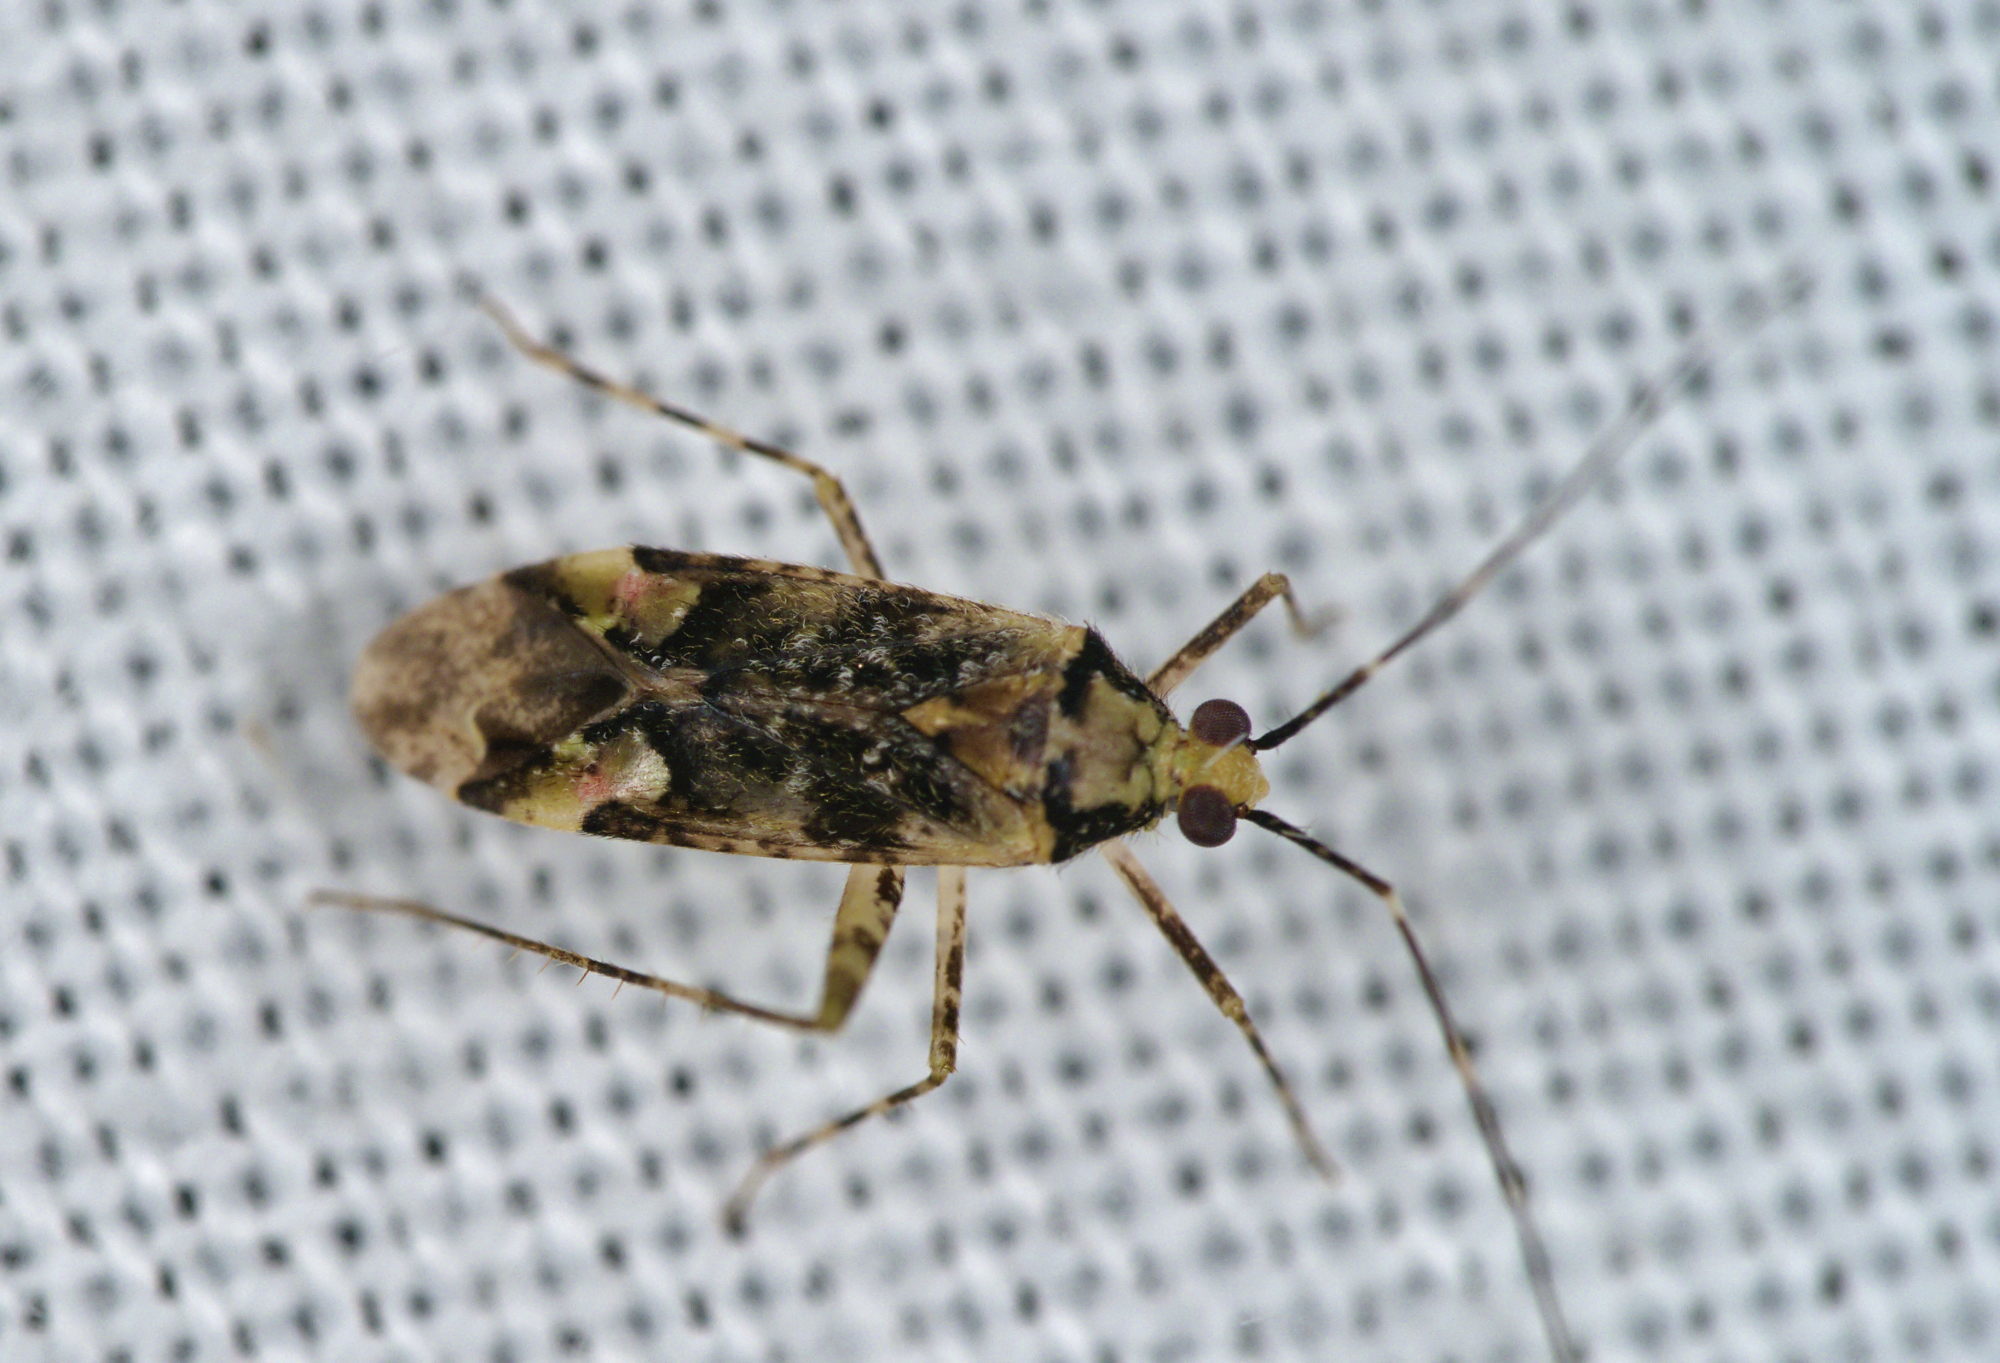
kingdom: Animalia
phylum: Arthropoda
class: Insecta
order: Hemiptera
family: Miridae
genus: Phytocoris
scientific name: Phytocoris tiliae
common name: Plant bug
